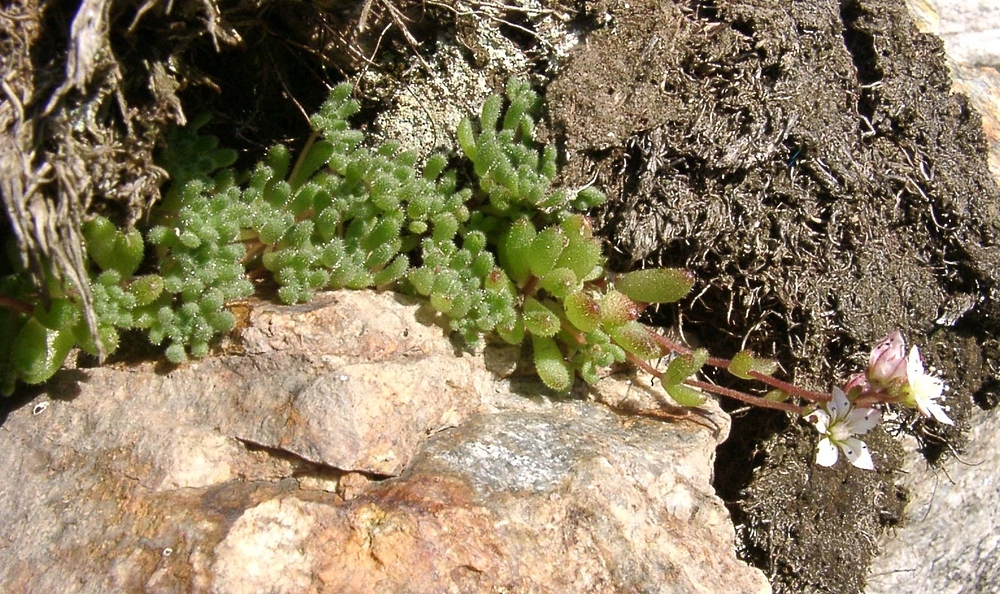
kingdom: Plantae
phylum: Tracheophyta
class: Magnoliopsida
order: Saxifragales
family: Crassulaceae
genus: Sedum
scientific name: Sedum hirsutum
